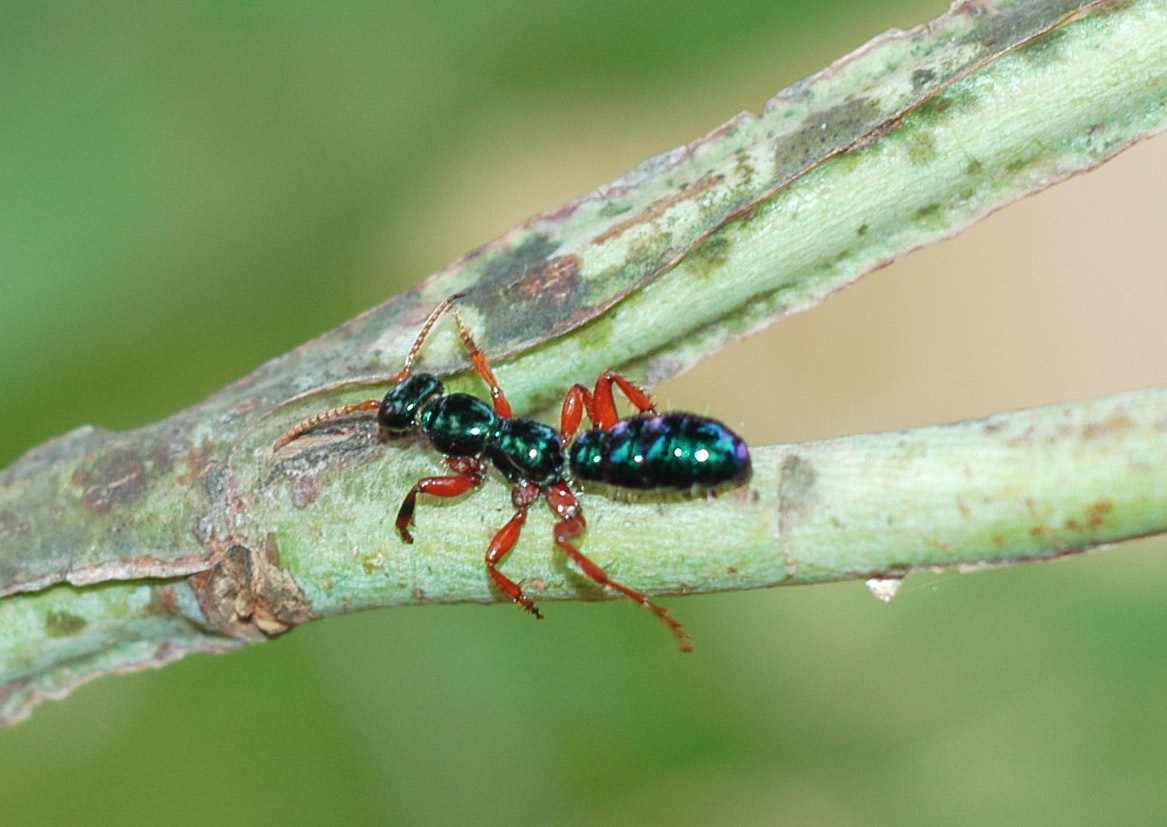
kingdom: Animalia
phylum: Arthropoda
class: Insecta
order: Hymenoptera
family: Tiphiidae
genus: Diamma
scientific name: Diamma
